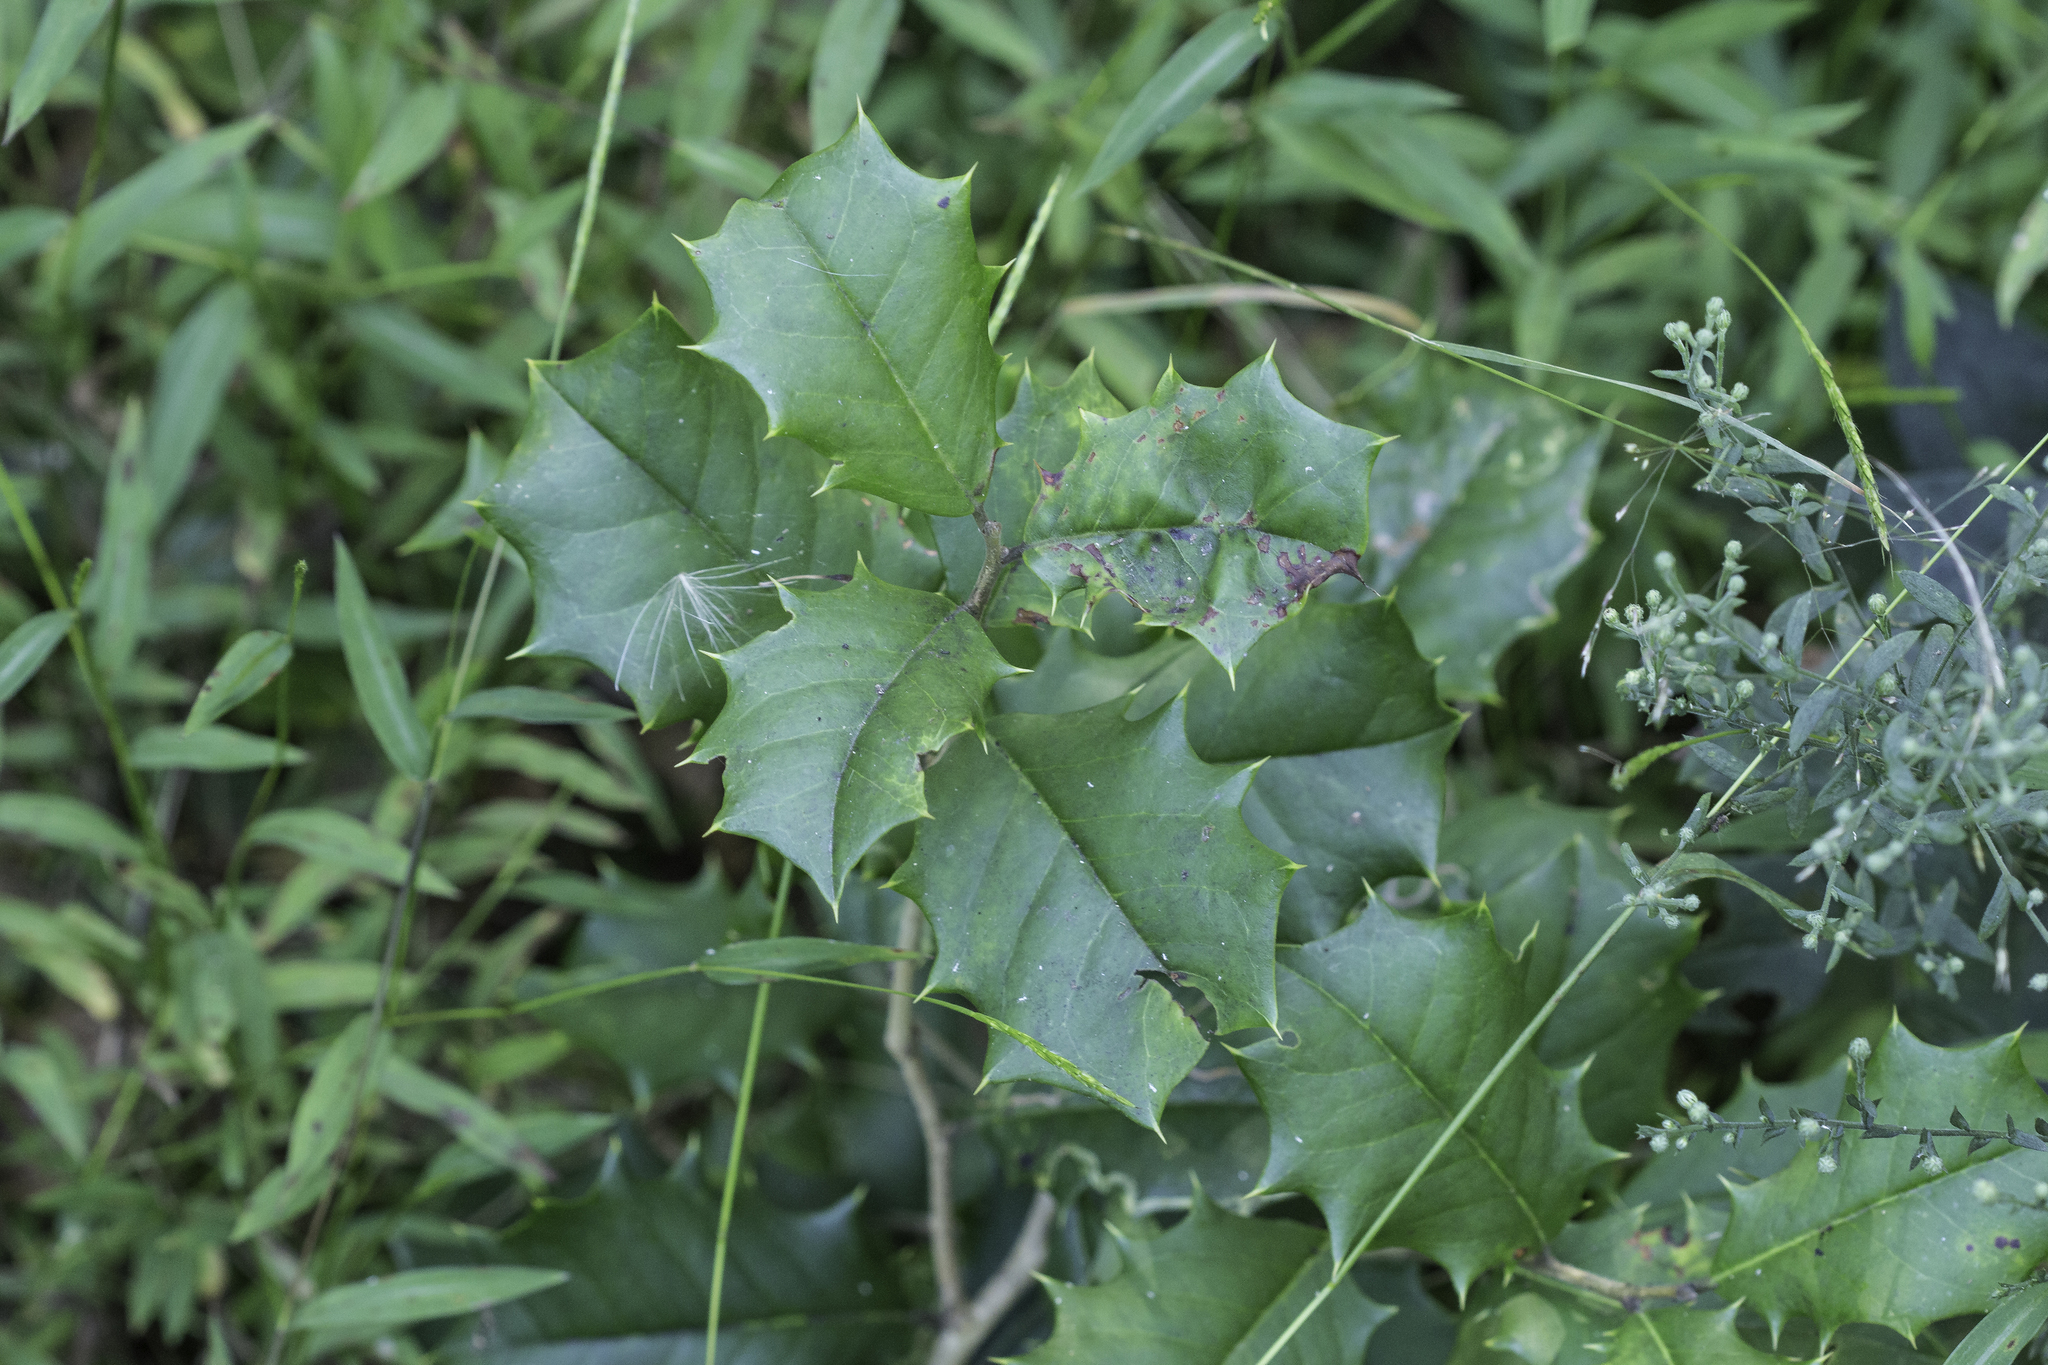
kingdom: Plantae
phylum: Tracheophyta
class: Magnoliopsida
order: Aquifoliales
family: Aquifoliaceae
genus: Ilex
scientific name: Ilex opaca
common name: American holly
